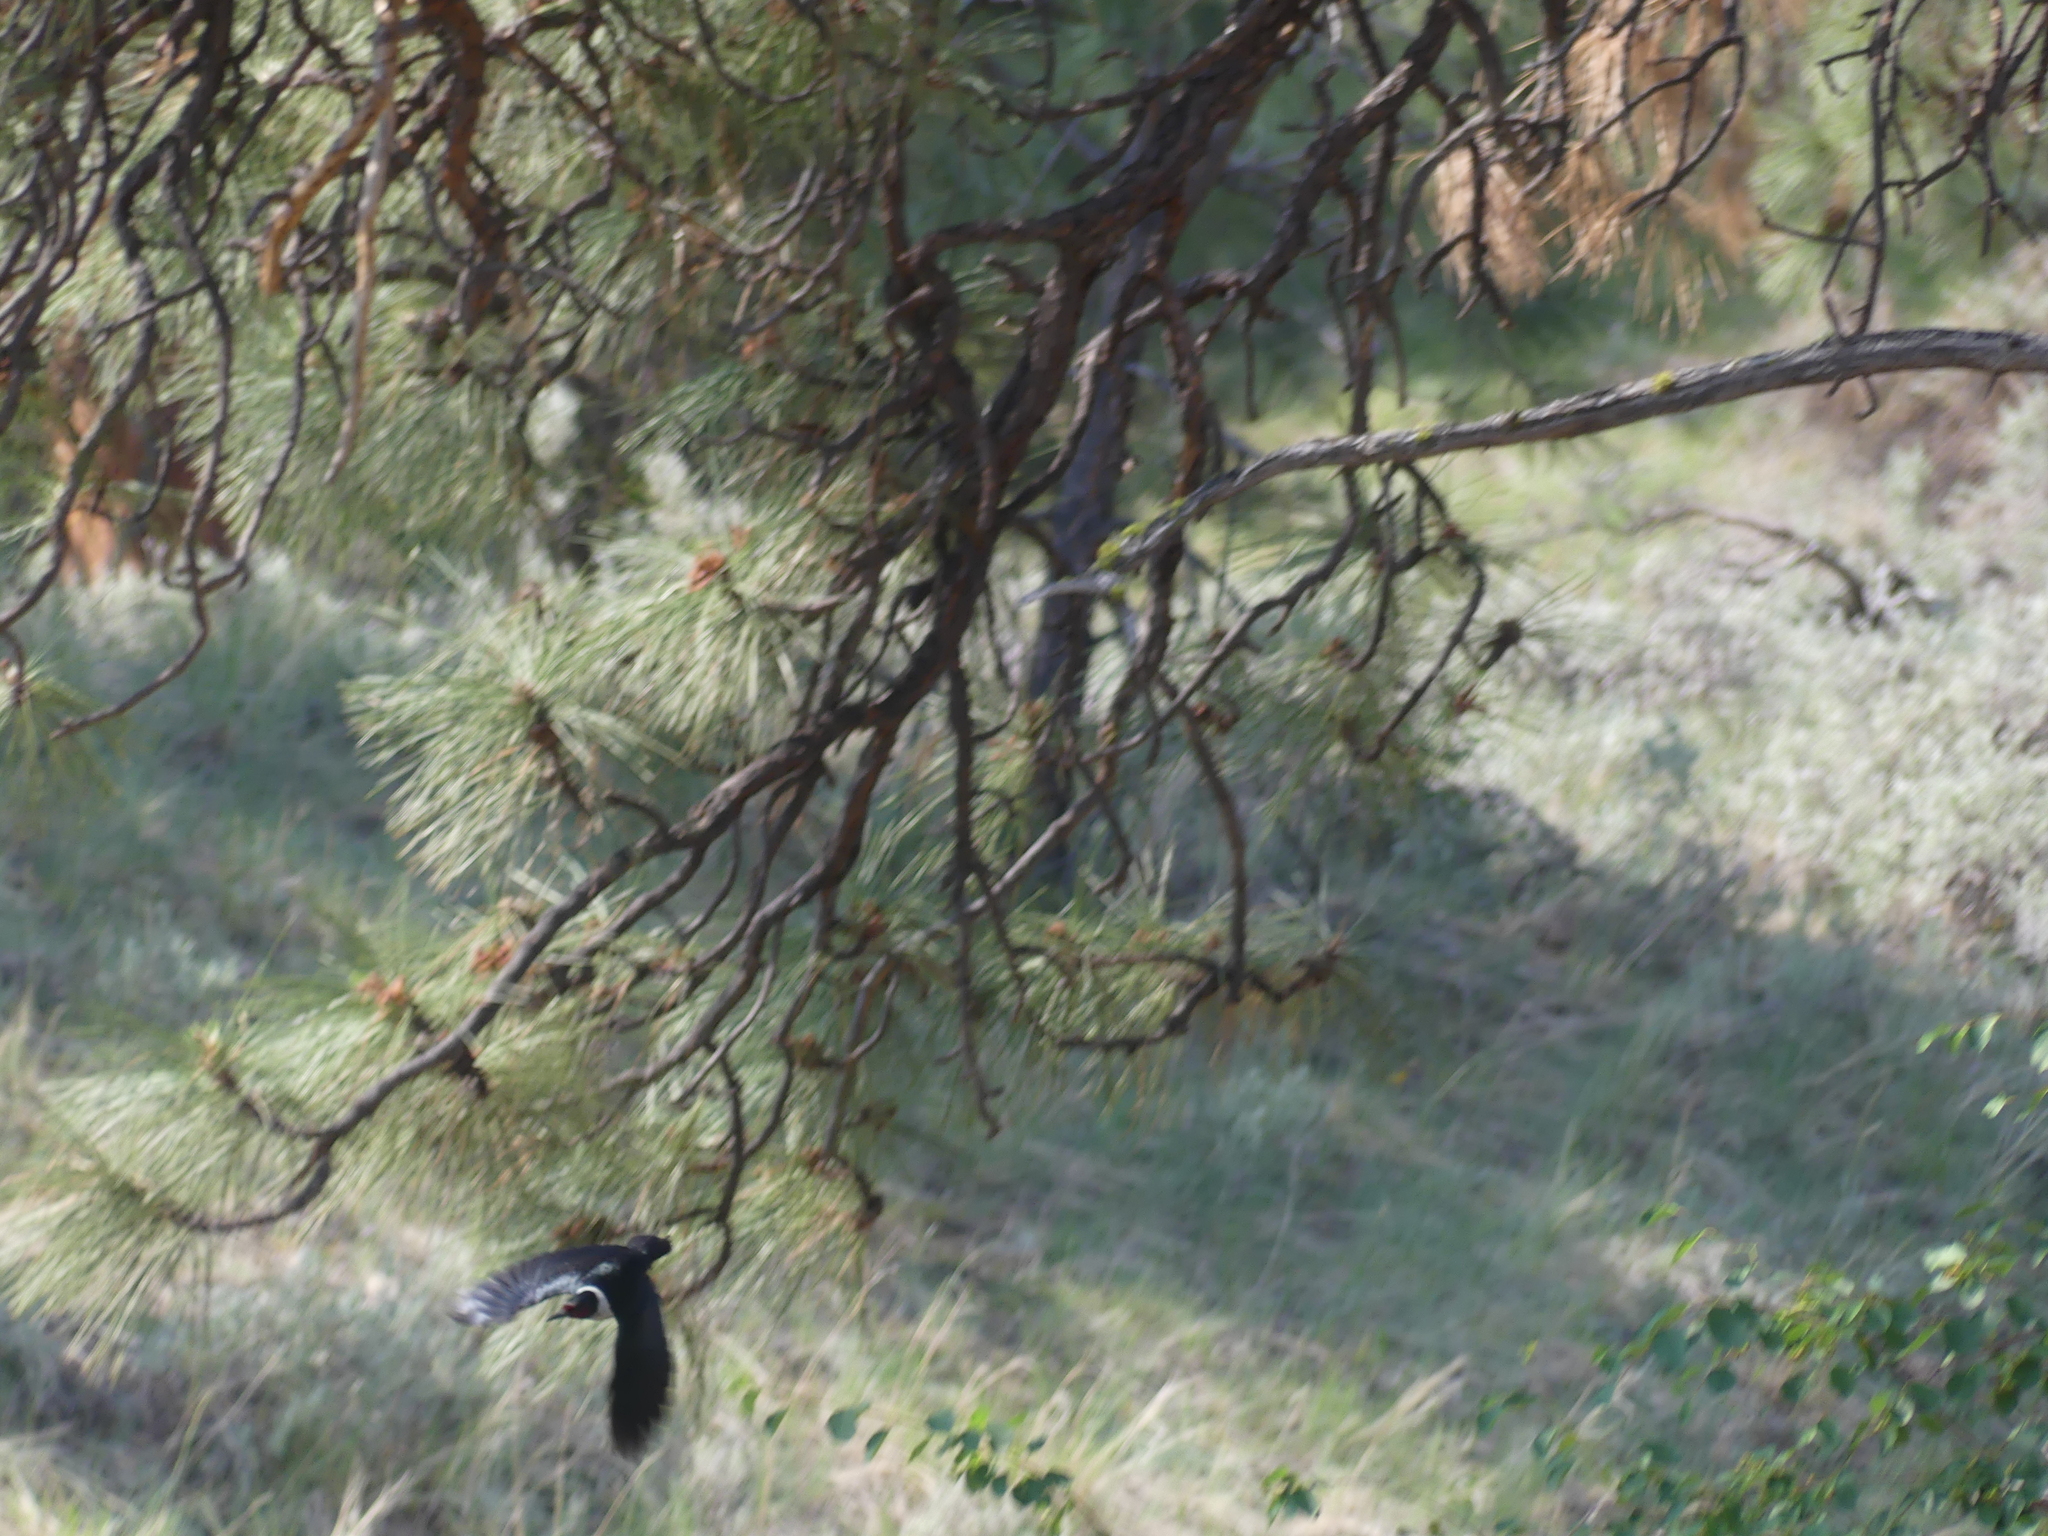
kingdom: Animalia
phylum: Chordata
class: Aves
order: Piciformes
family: Picidae
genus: Melanerpes
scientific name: Melanerpes lewis
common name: Lewis's woodpecker
